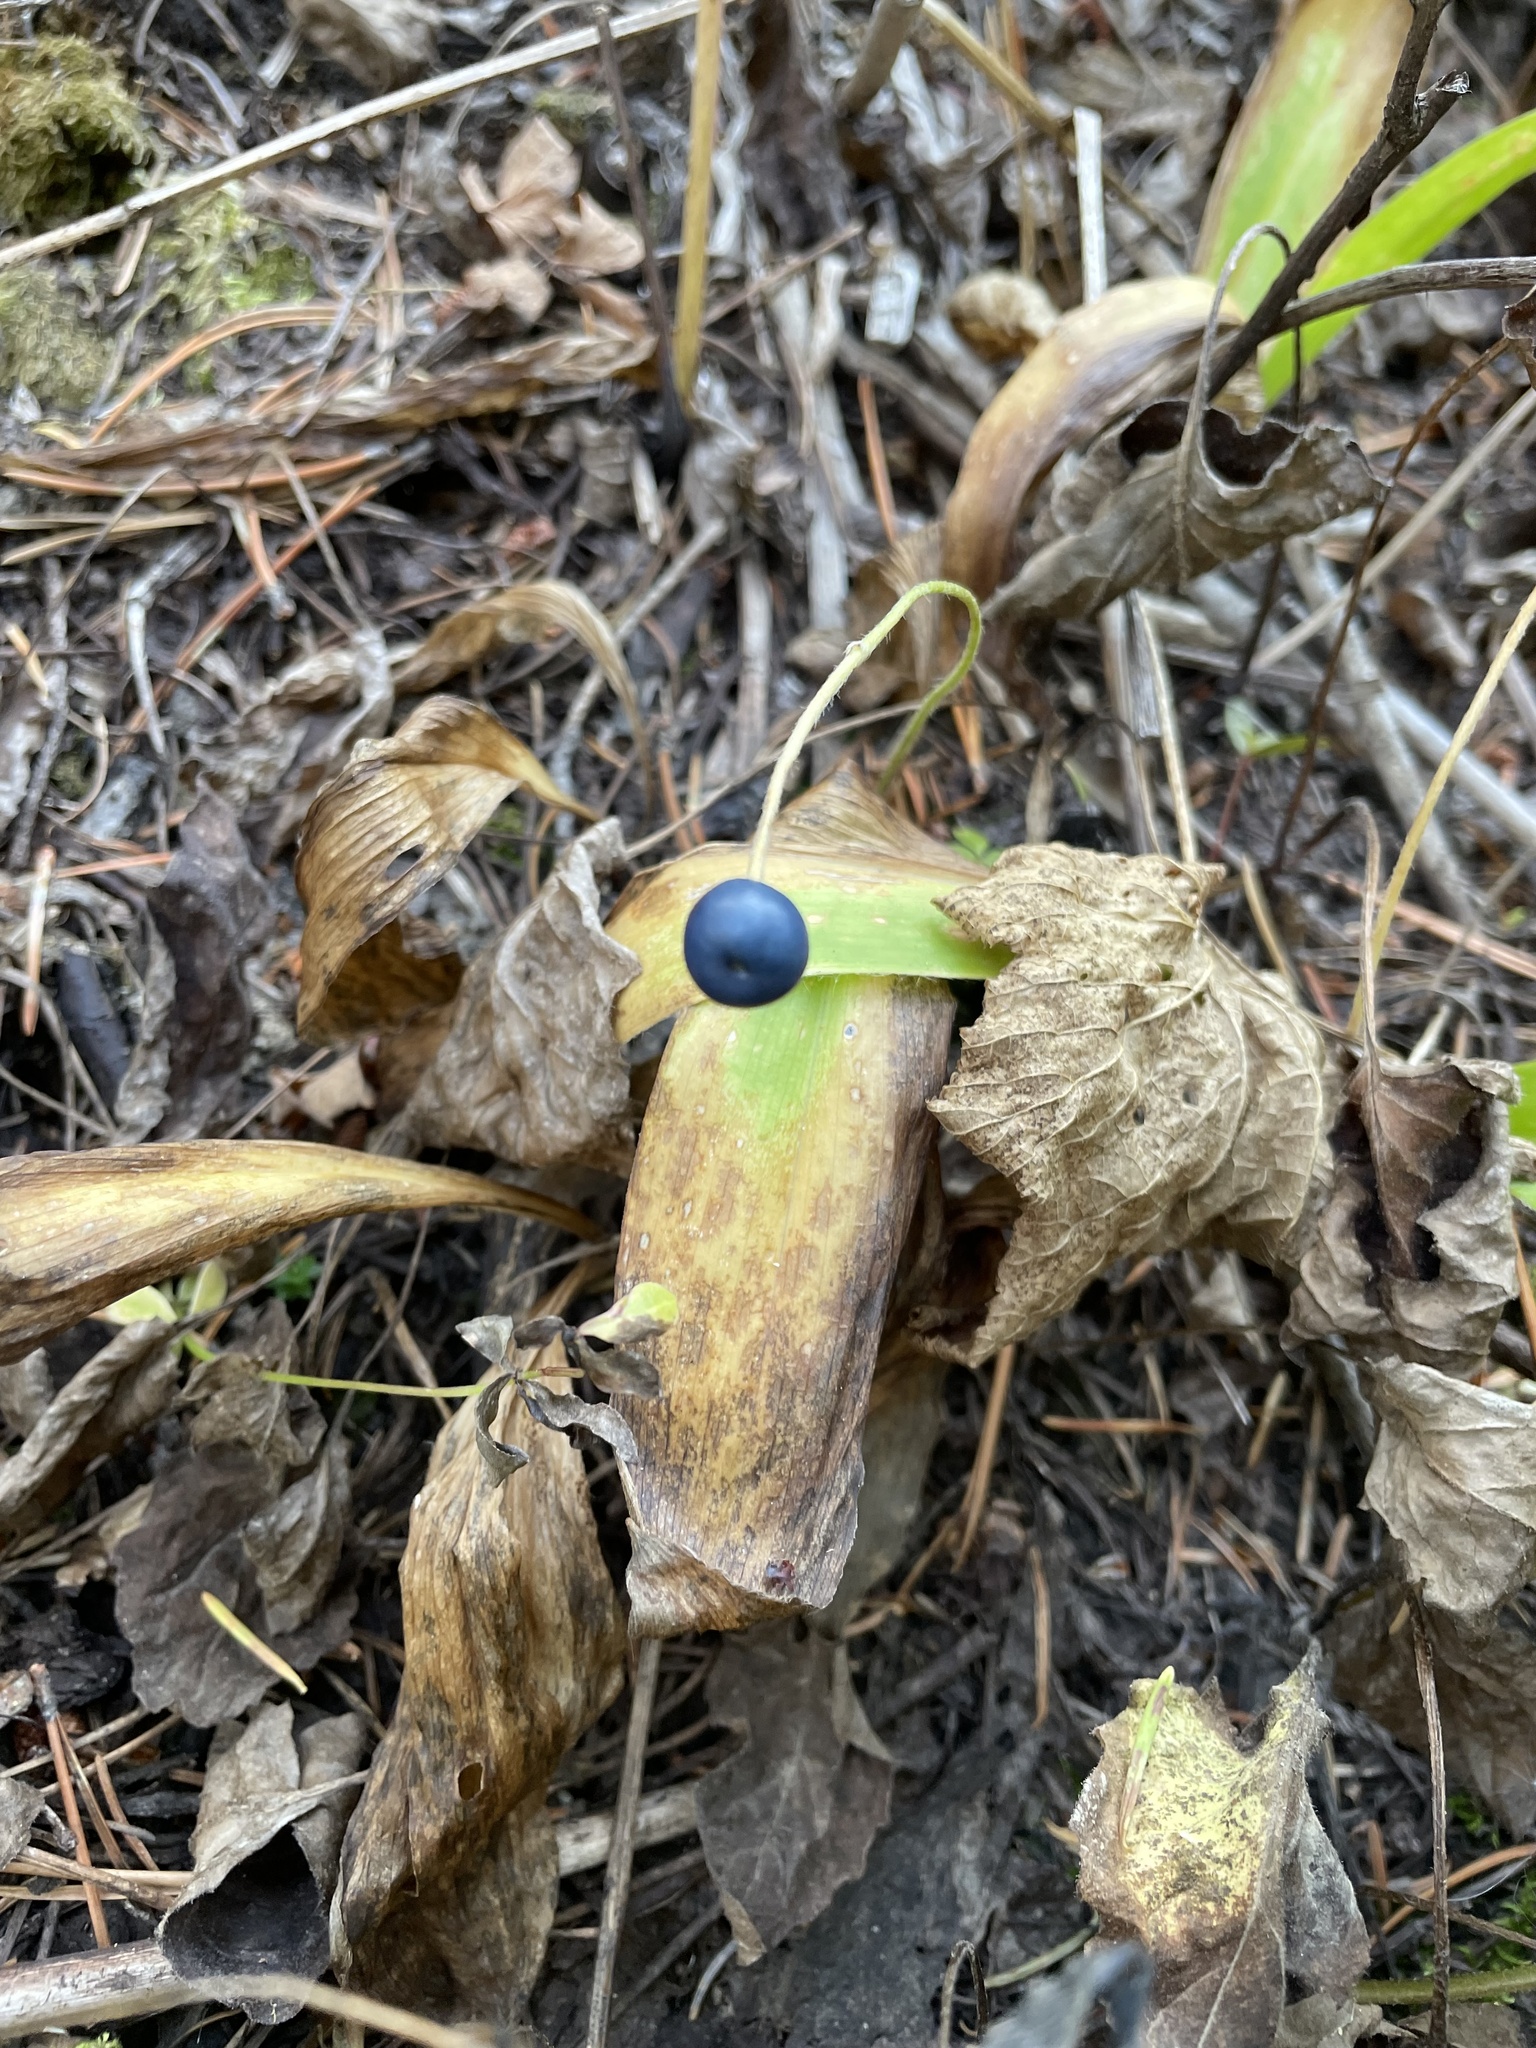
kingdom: Plantae
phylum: Tracheophyta
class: Liliopsida
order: Liliales
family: Liliaceae
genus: Clintonia
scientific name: Clintonia uniflora
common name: Queen's cup
